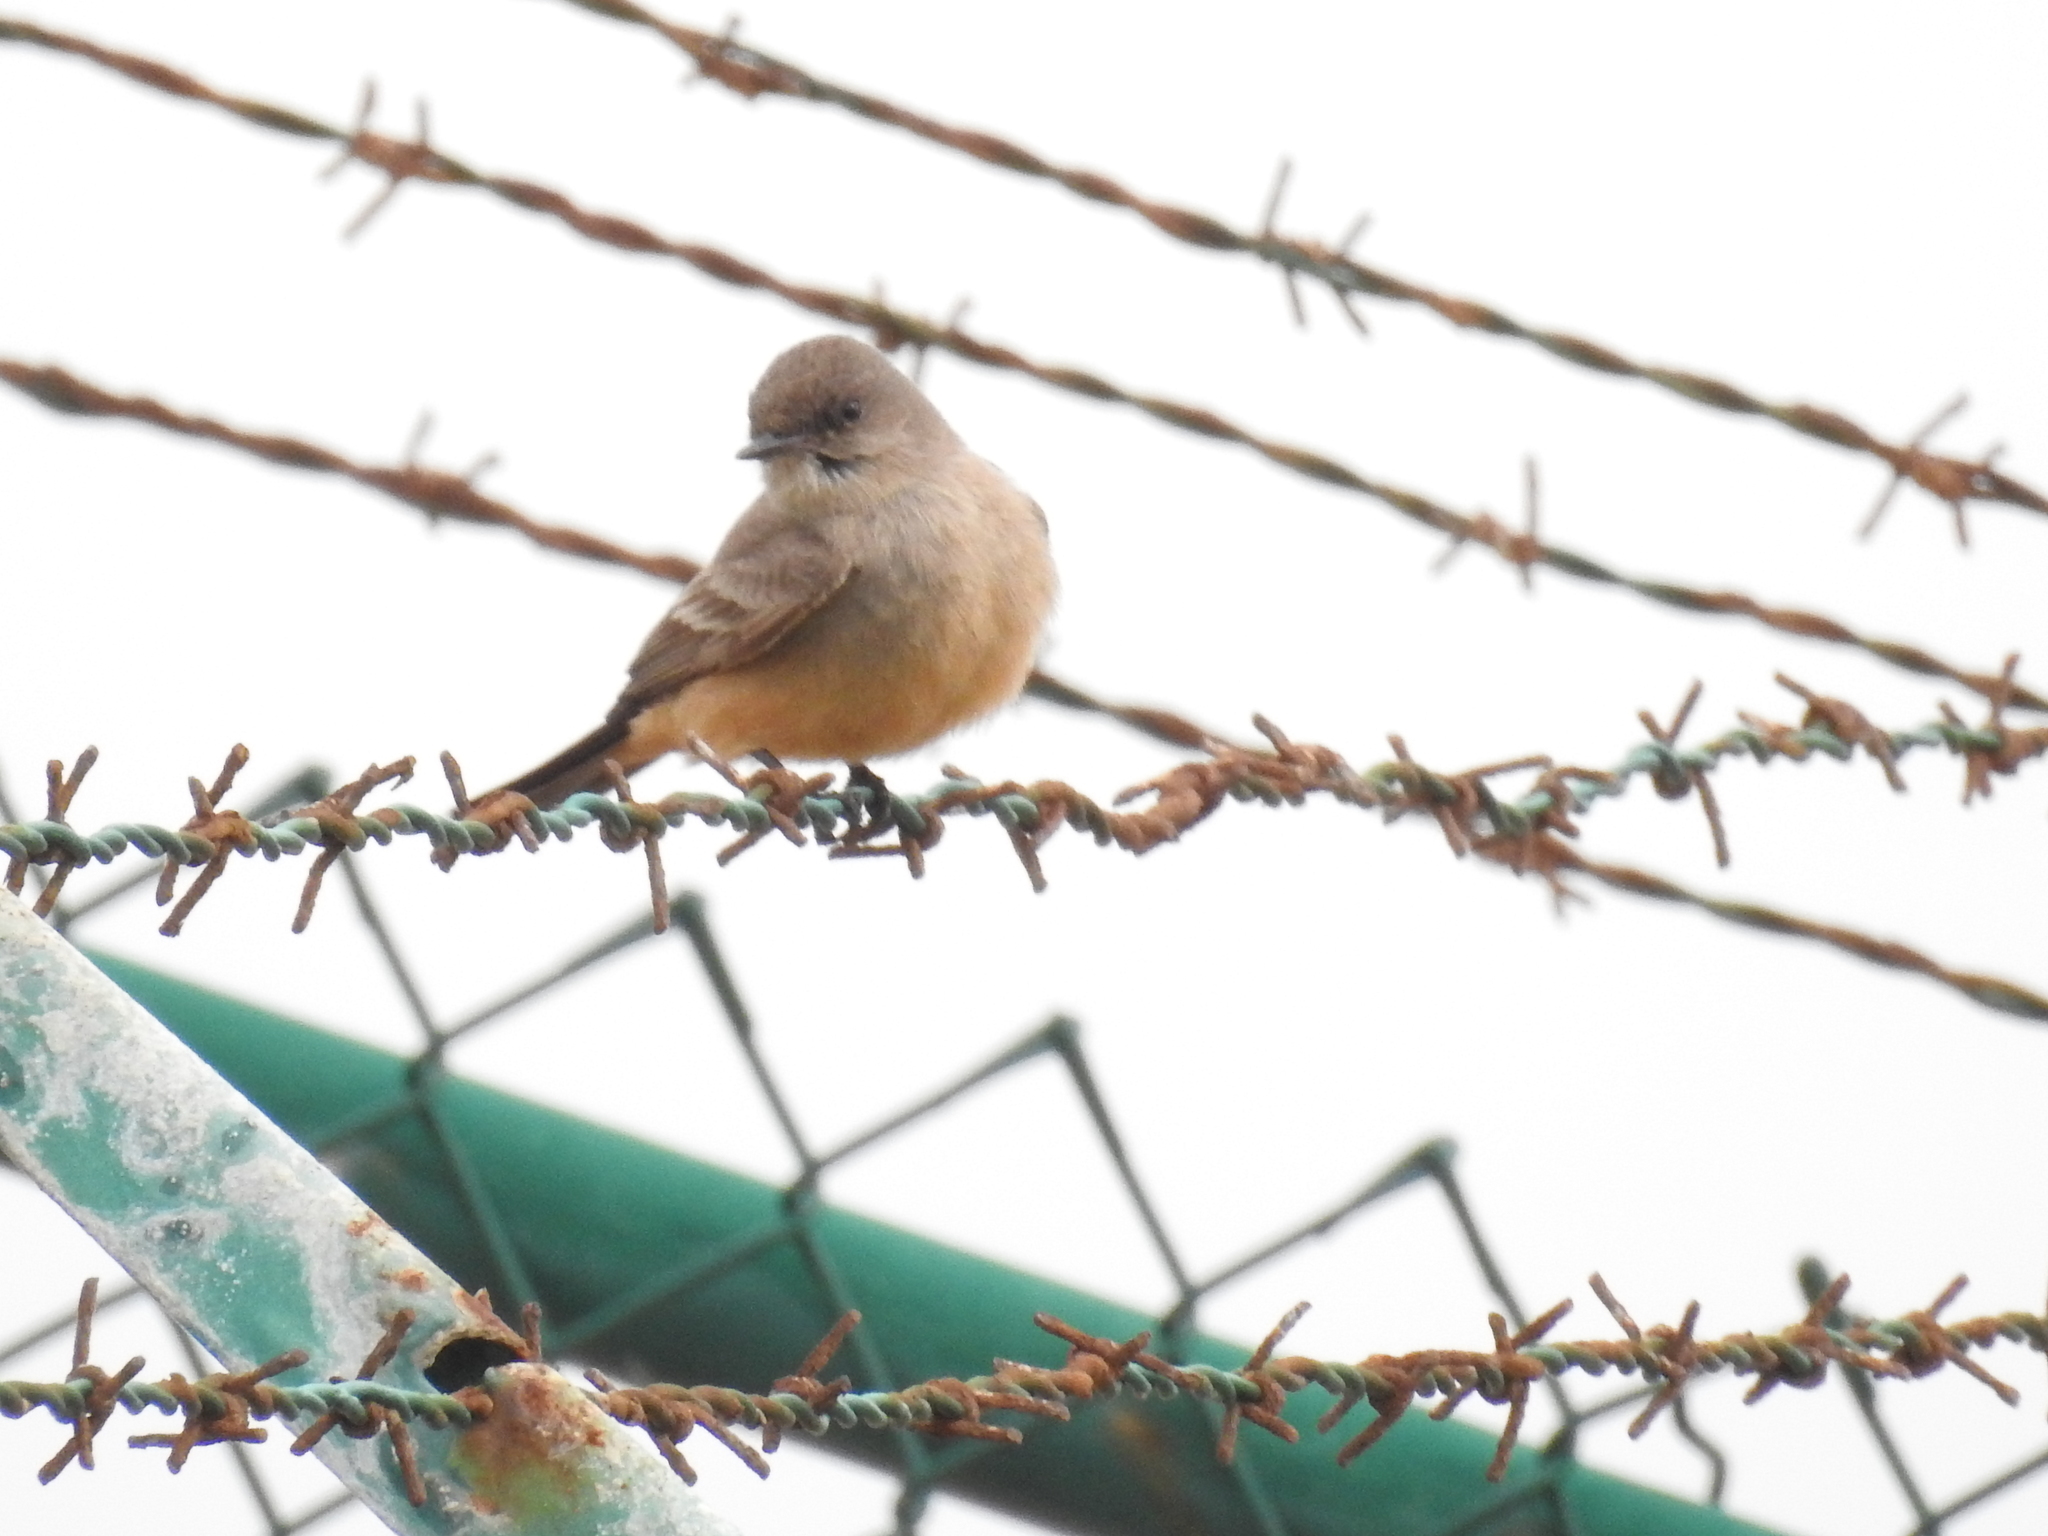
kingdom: Animalia
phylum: Chordata
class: Aves
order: Passeriformes
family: Tyrannidae
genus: Sayornis
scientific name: Sayornis saya
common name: Say's phoebe
